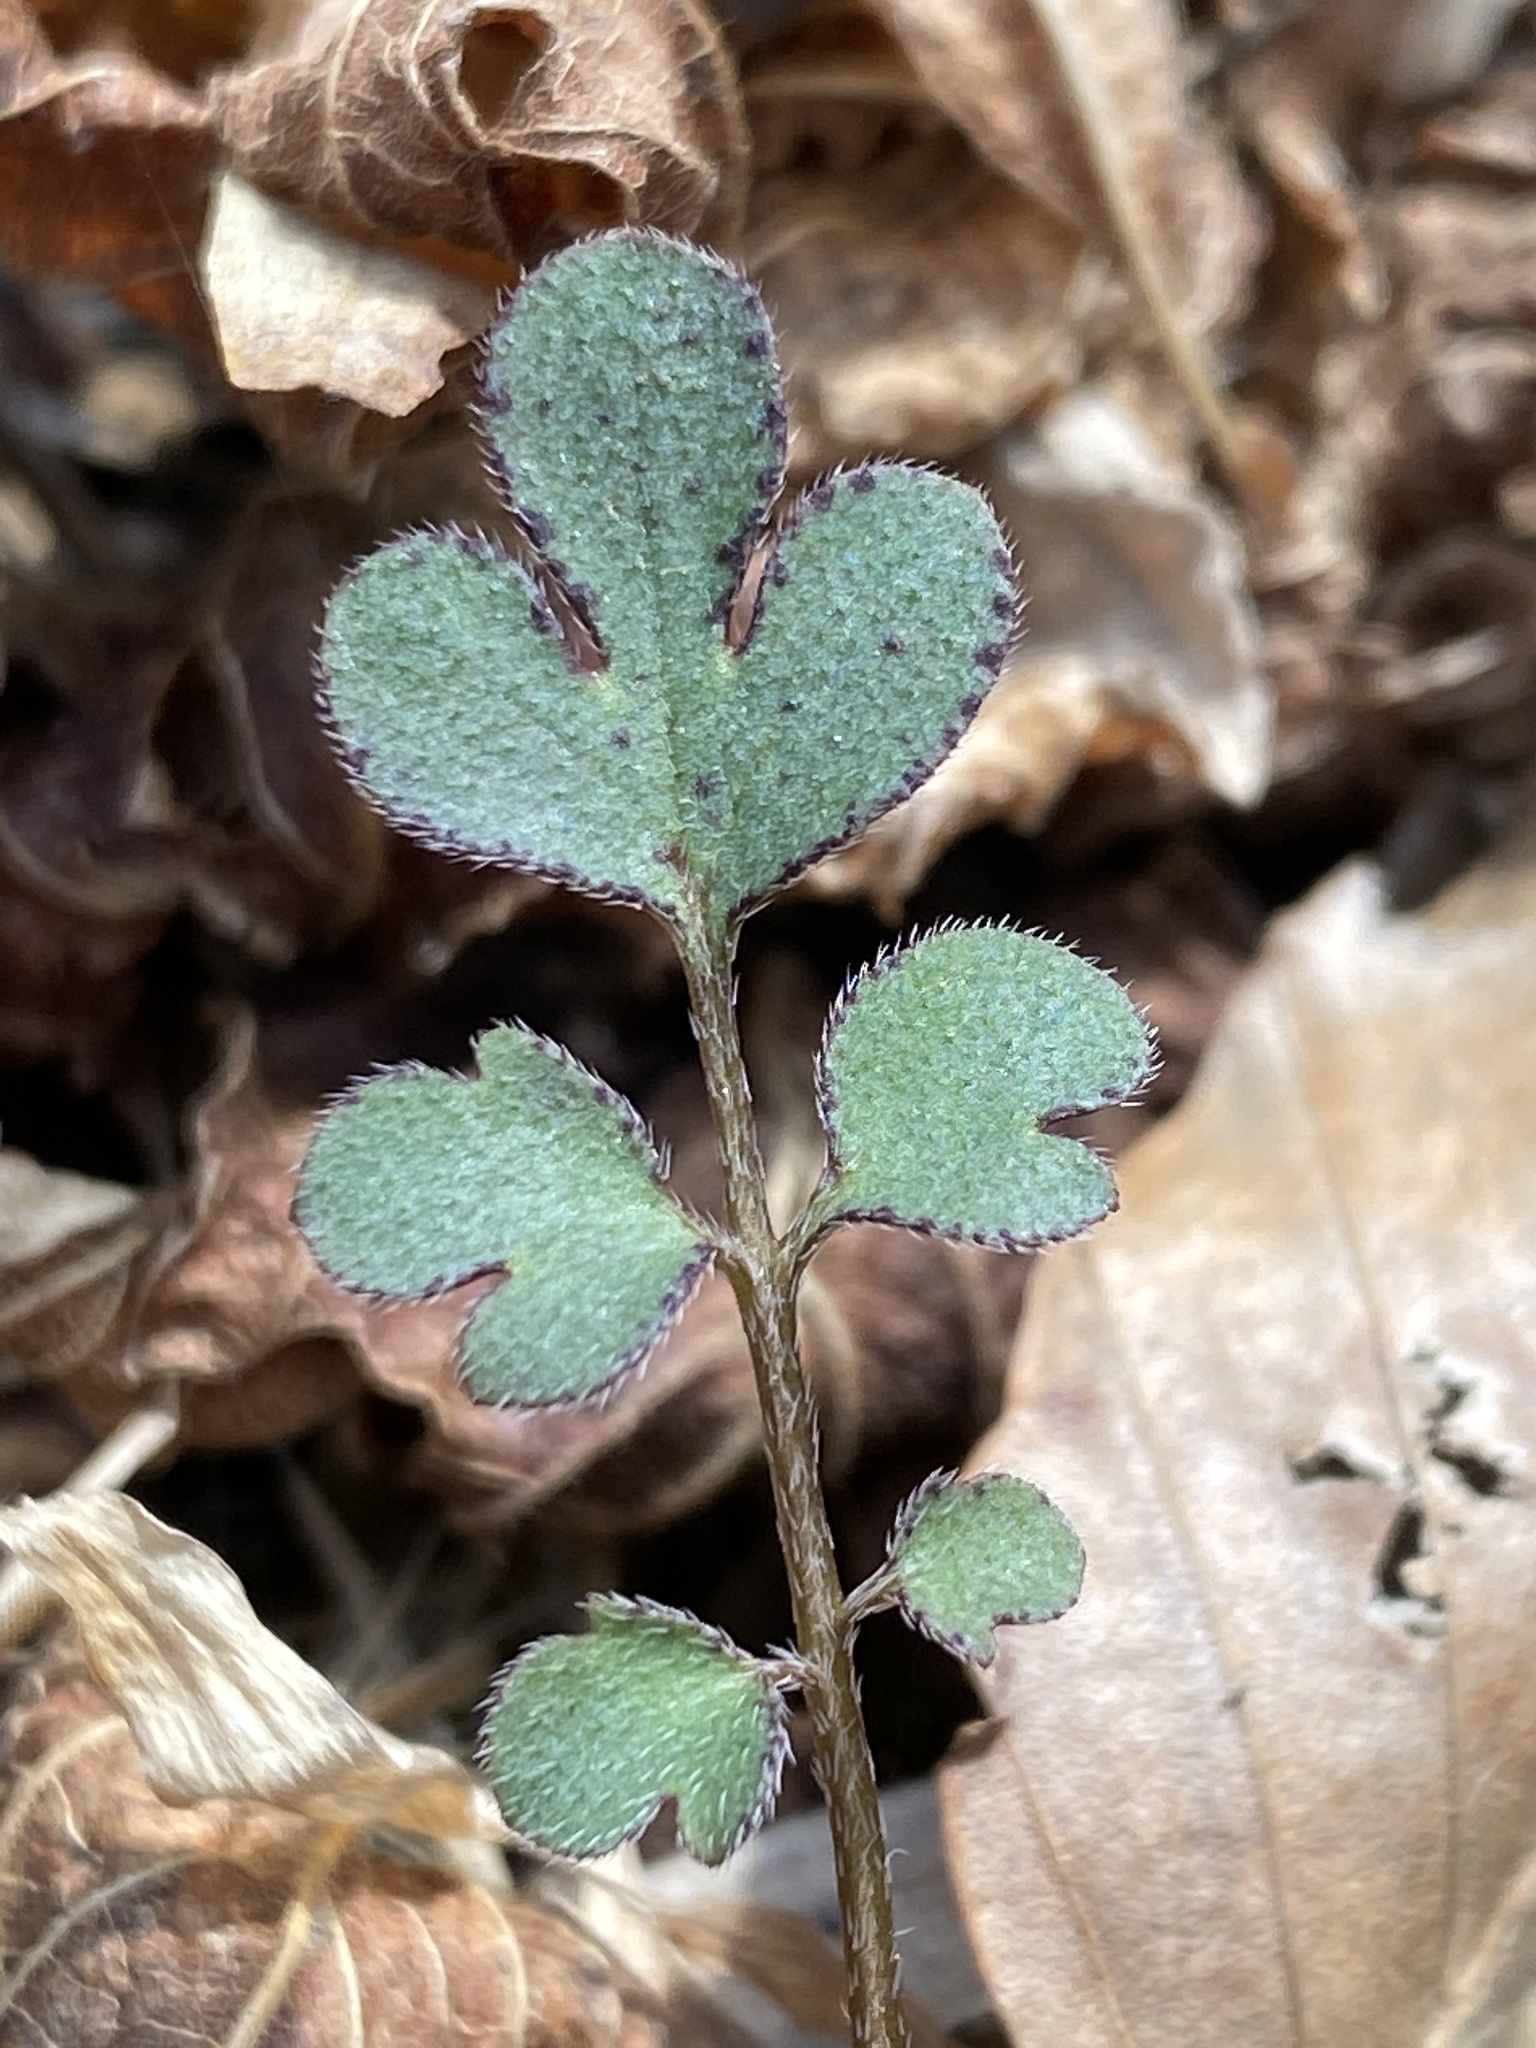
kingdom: Plantae
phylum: Tracheophyta
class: Magnoliopsida
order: Boraginales
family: Hydrophyllaceae
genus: Phacelia
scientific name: Phacelia covillei
